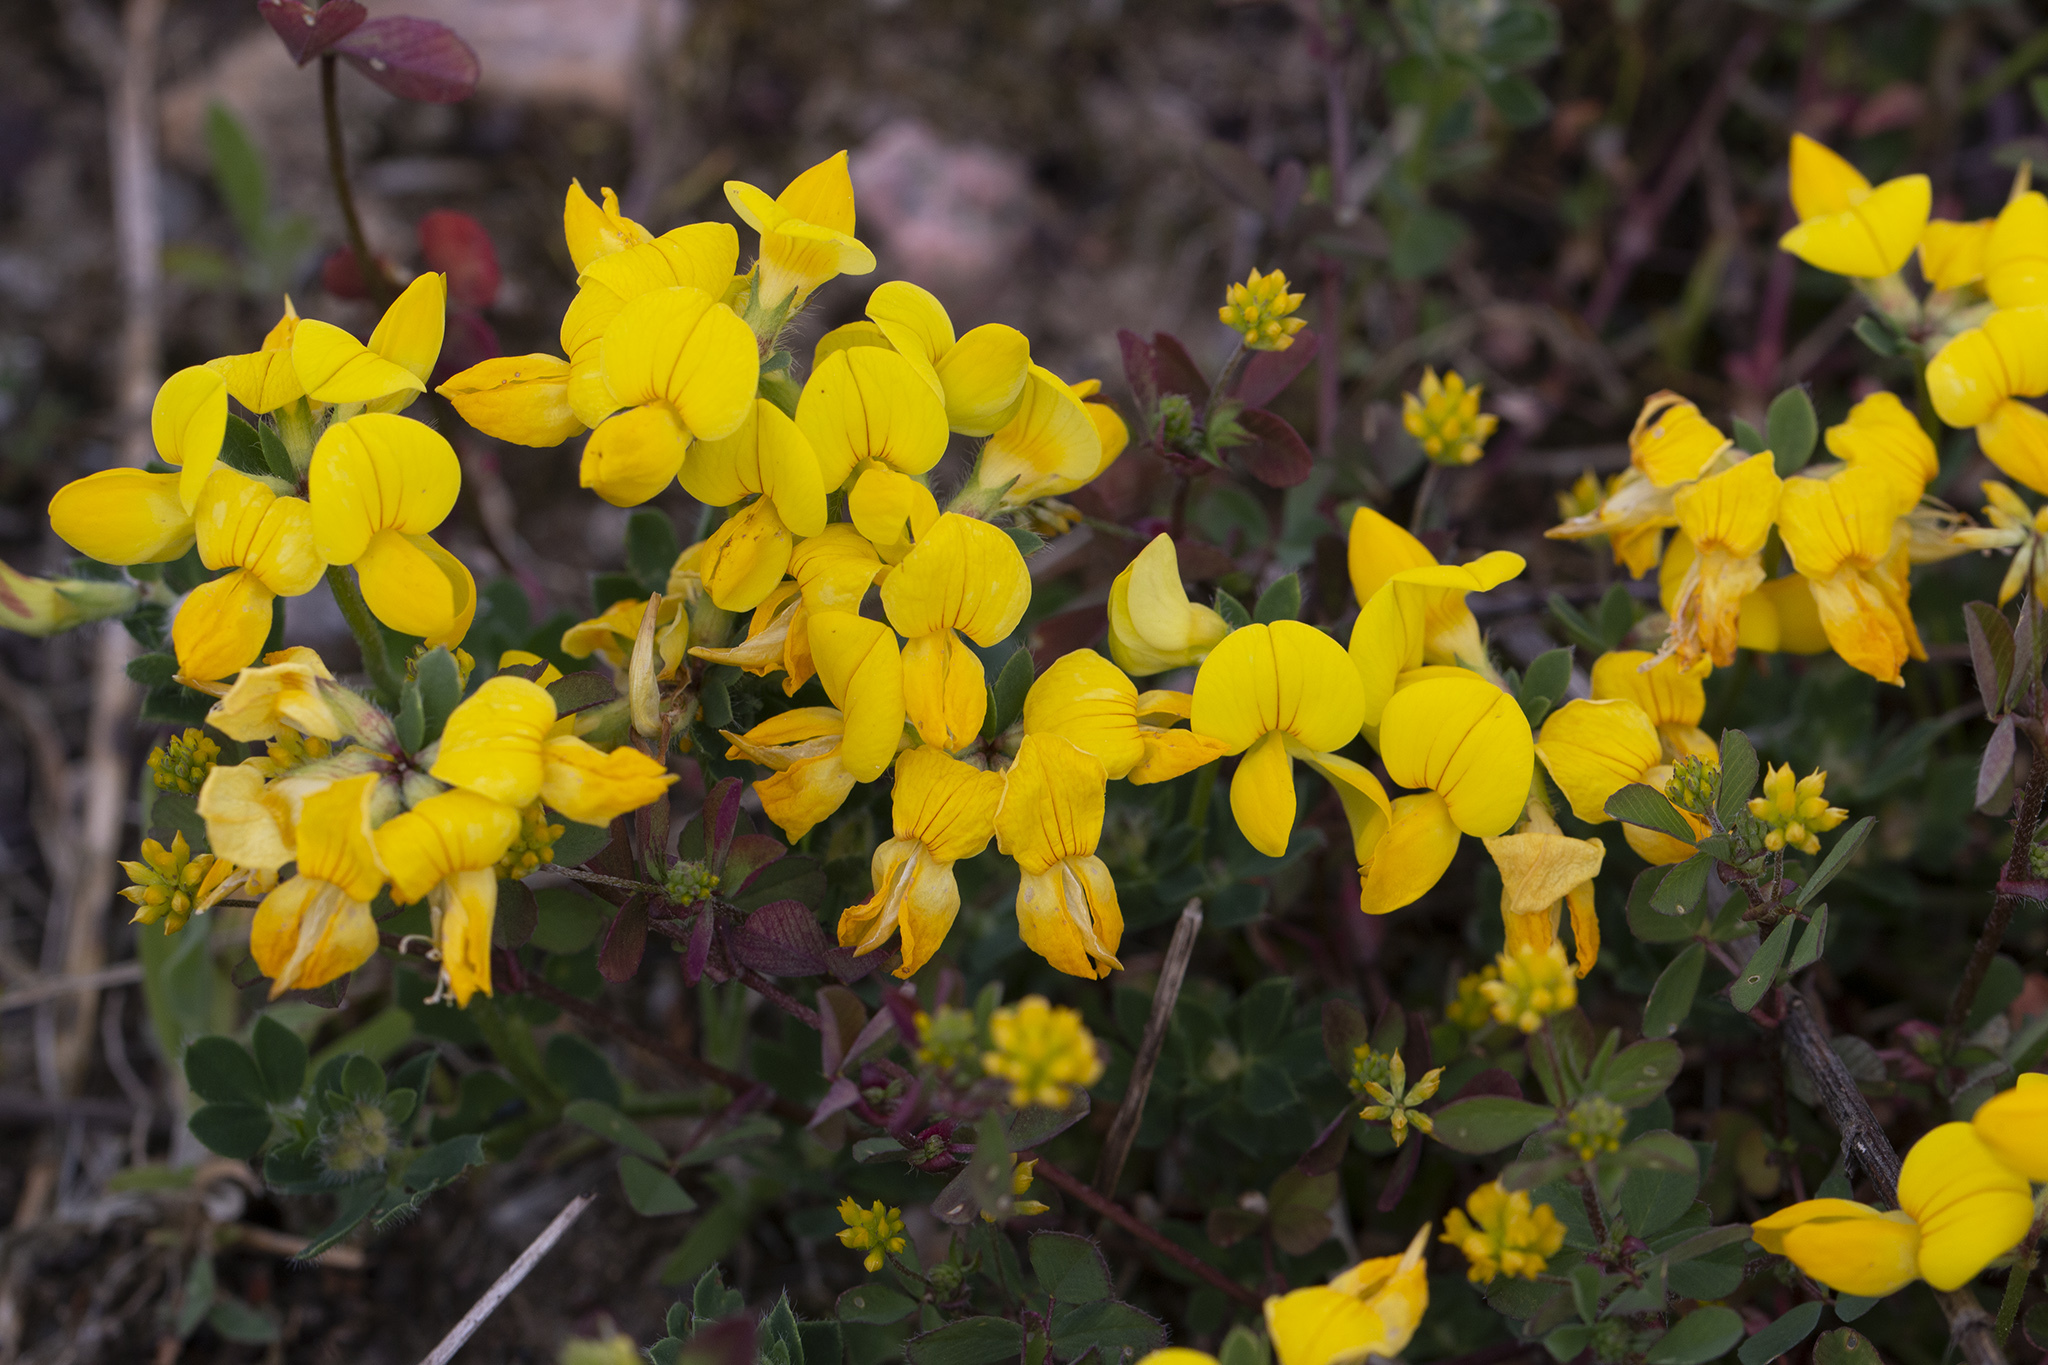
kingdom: Plantae
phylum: Tracheophyta
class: Magnoliopsida
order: Fabales
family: Fabaceae
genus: Lotus
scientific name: Lotus corniculatus
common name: Common bird's-foot-trefoil
